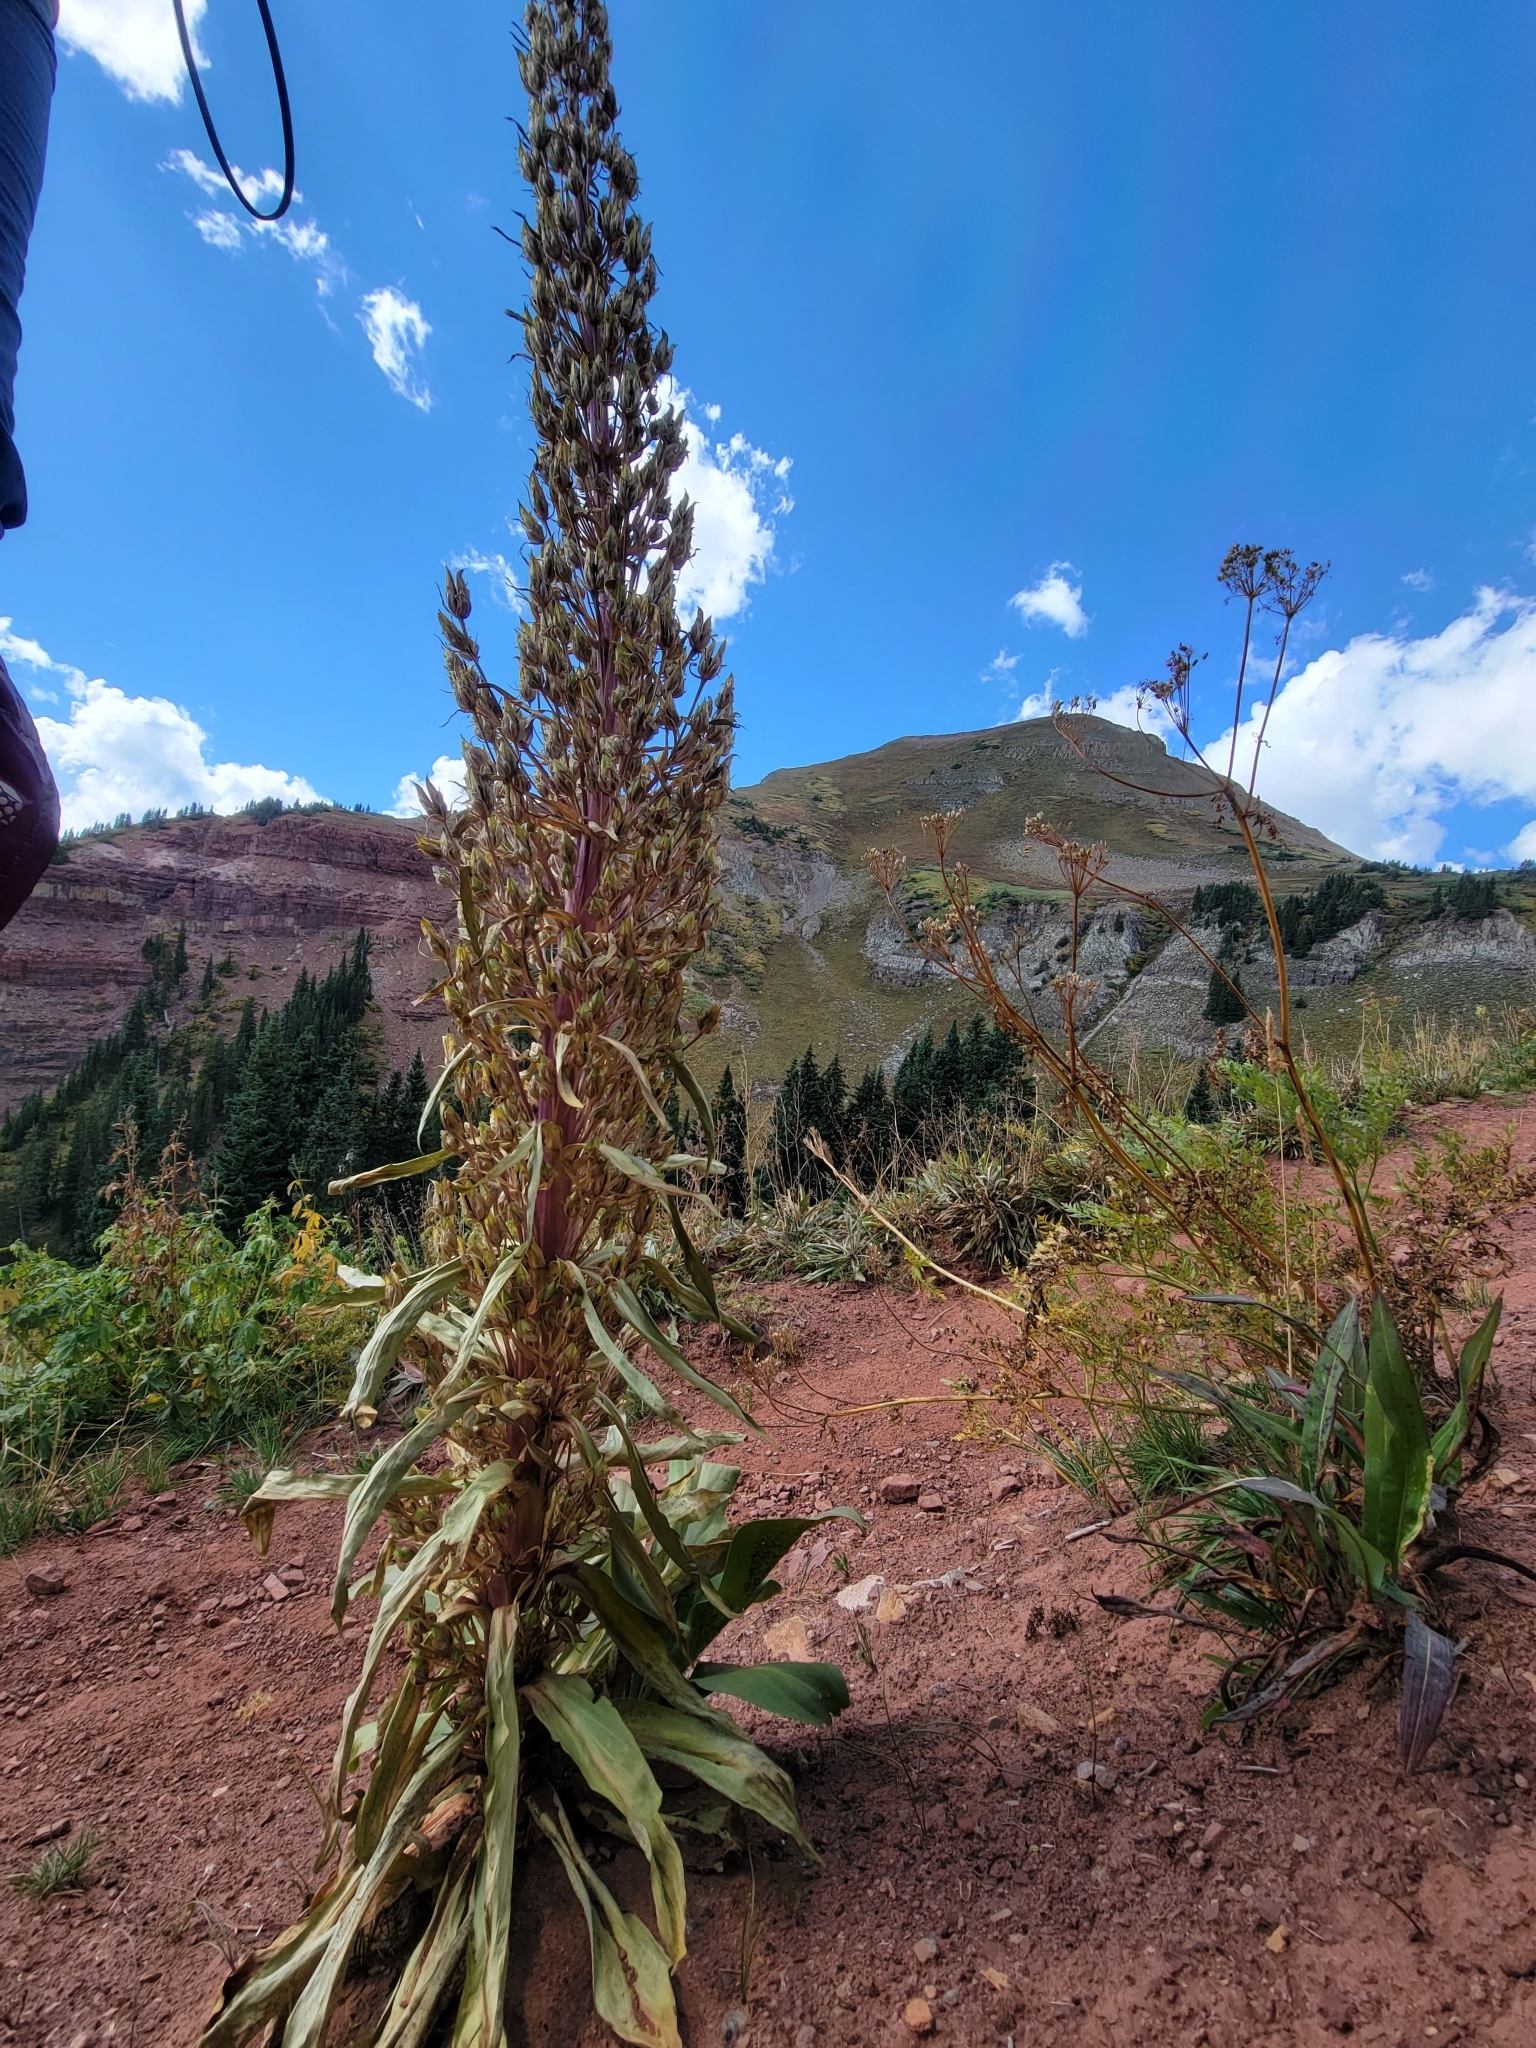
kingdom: Plantae
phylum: Tracheophyta
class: Magnoliopsida
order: Gentianales
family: Gentianaceae
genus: Frasera
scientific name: Frasera speciosa
